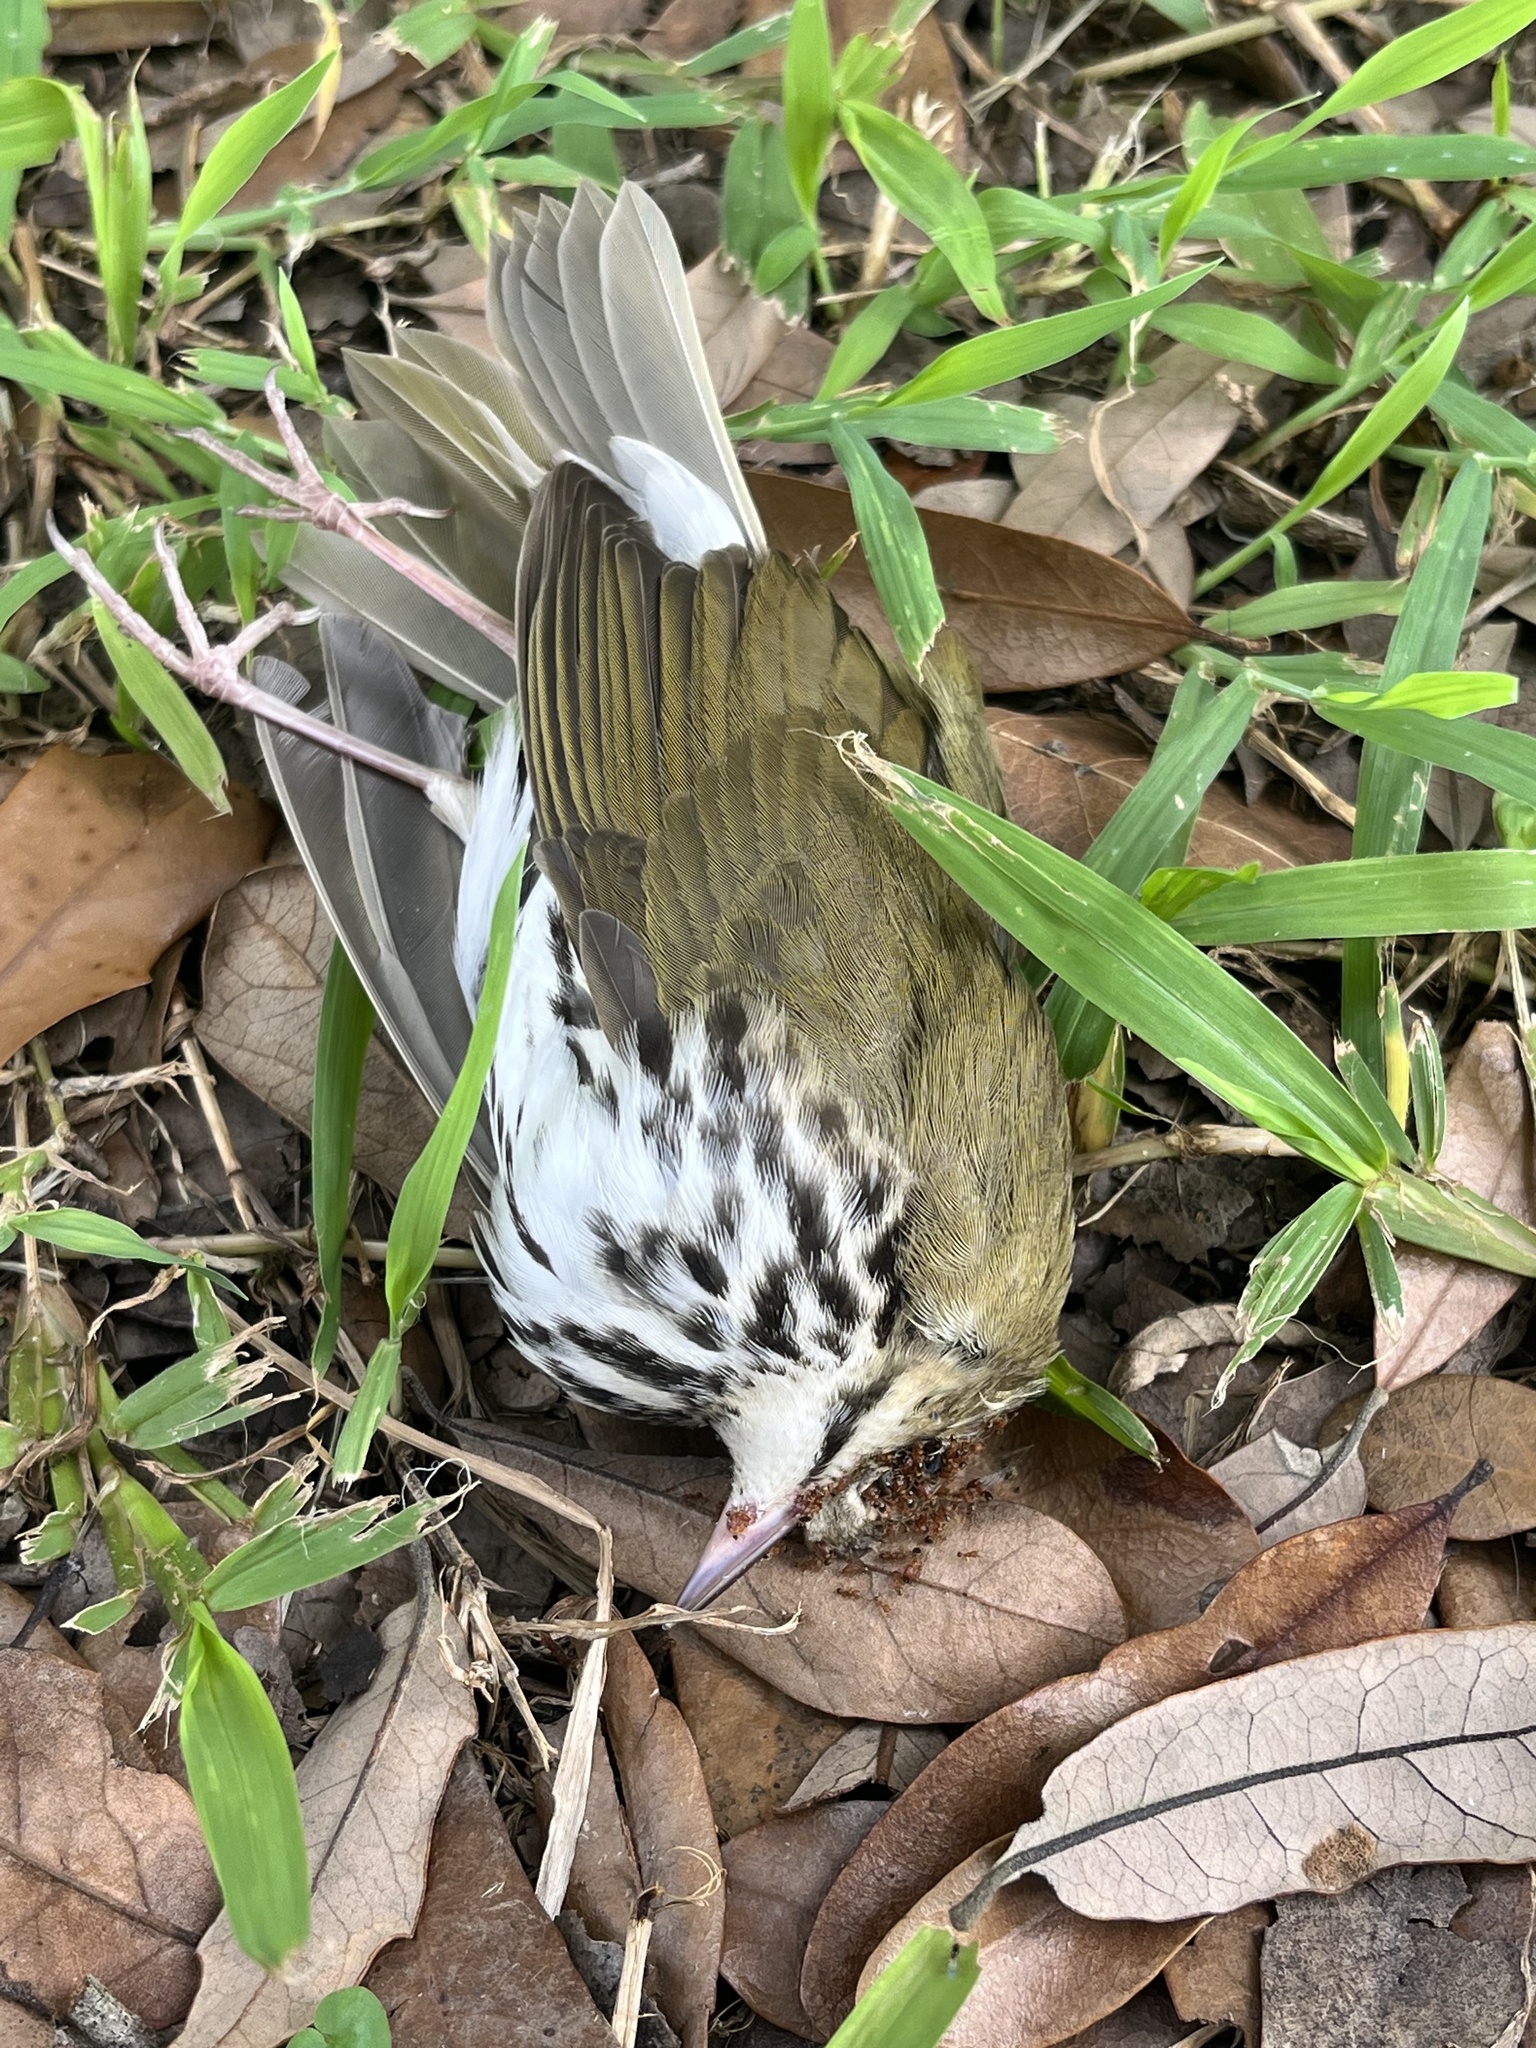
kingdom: Animalia
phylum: Chordata
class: Aves
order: Passeriformes
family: Parulidae
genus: Seiurus
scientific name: Seiurus aurocapilla
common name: Ovenbird
